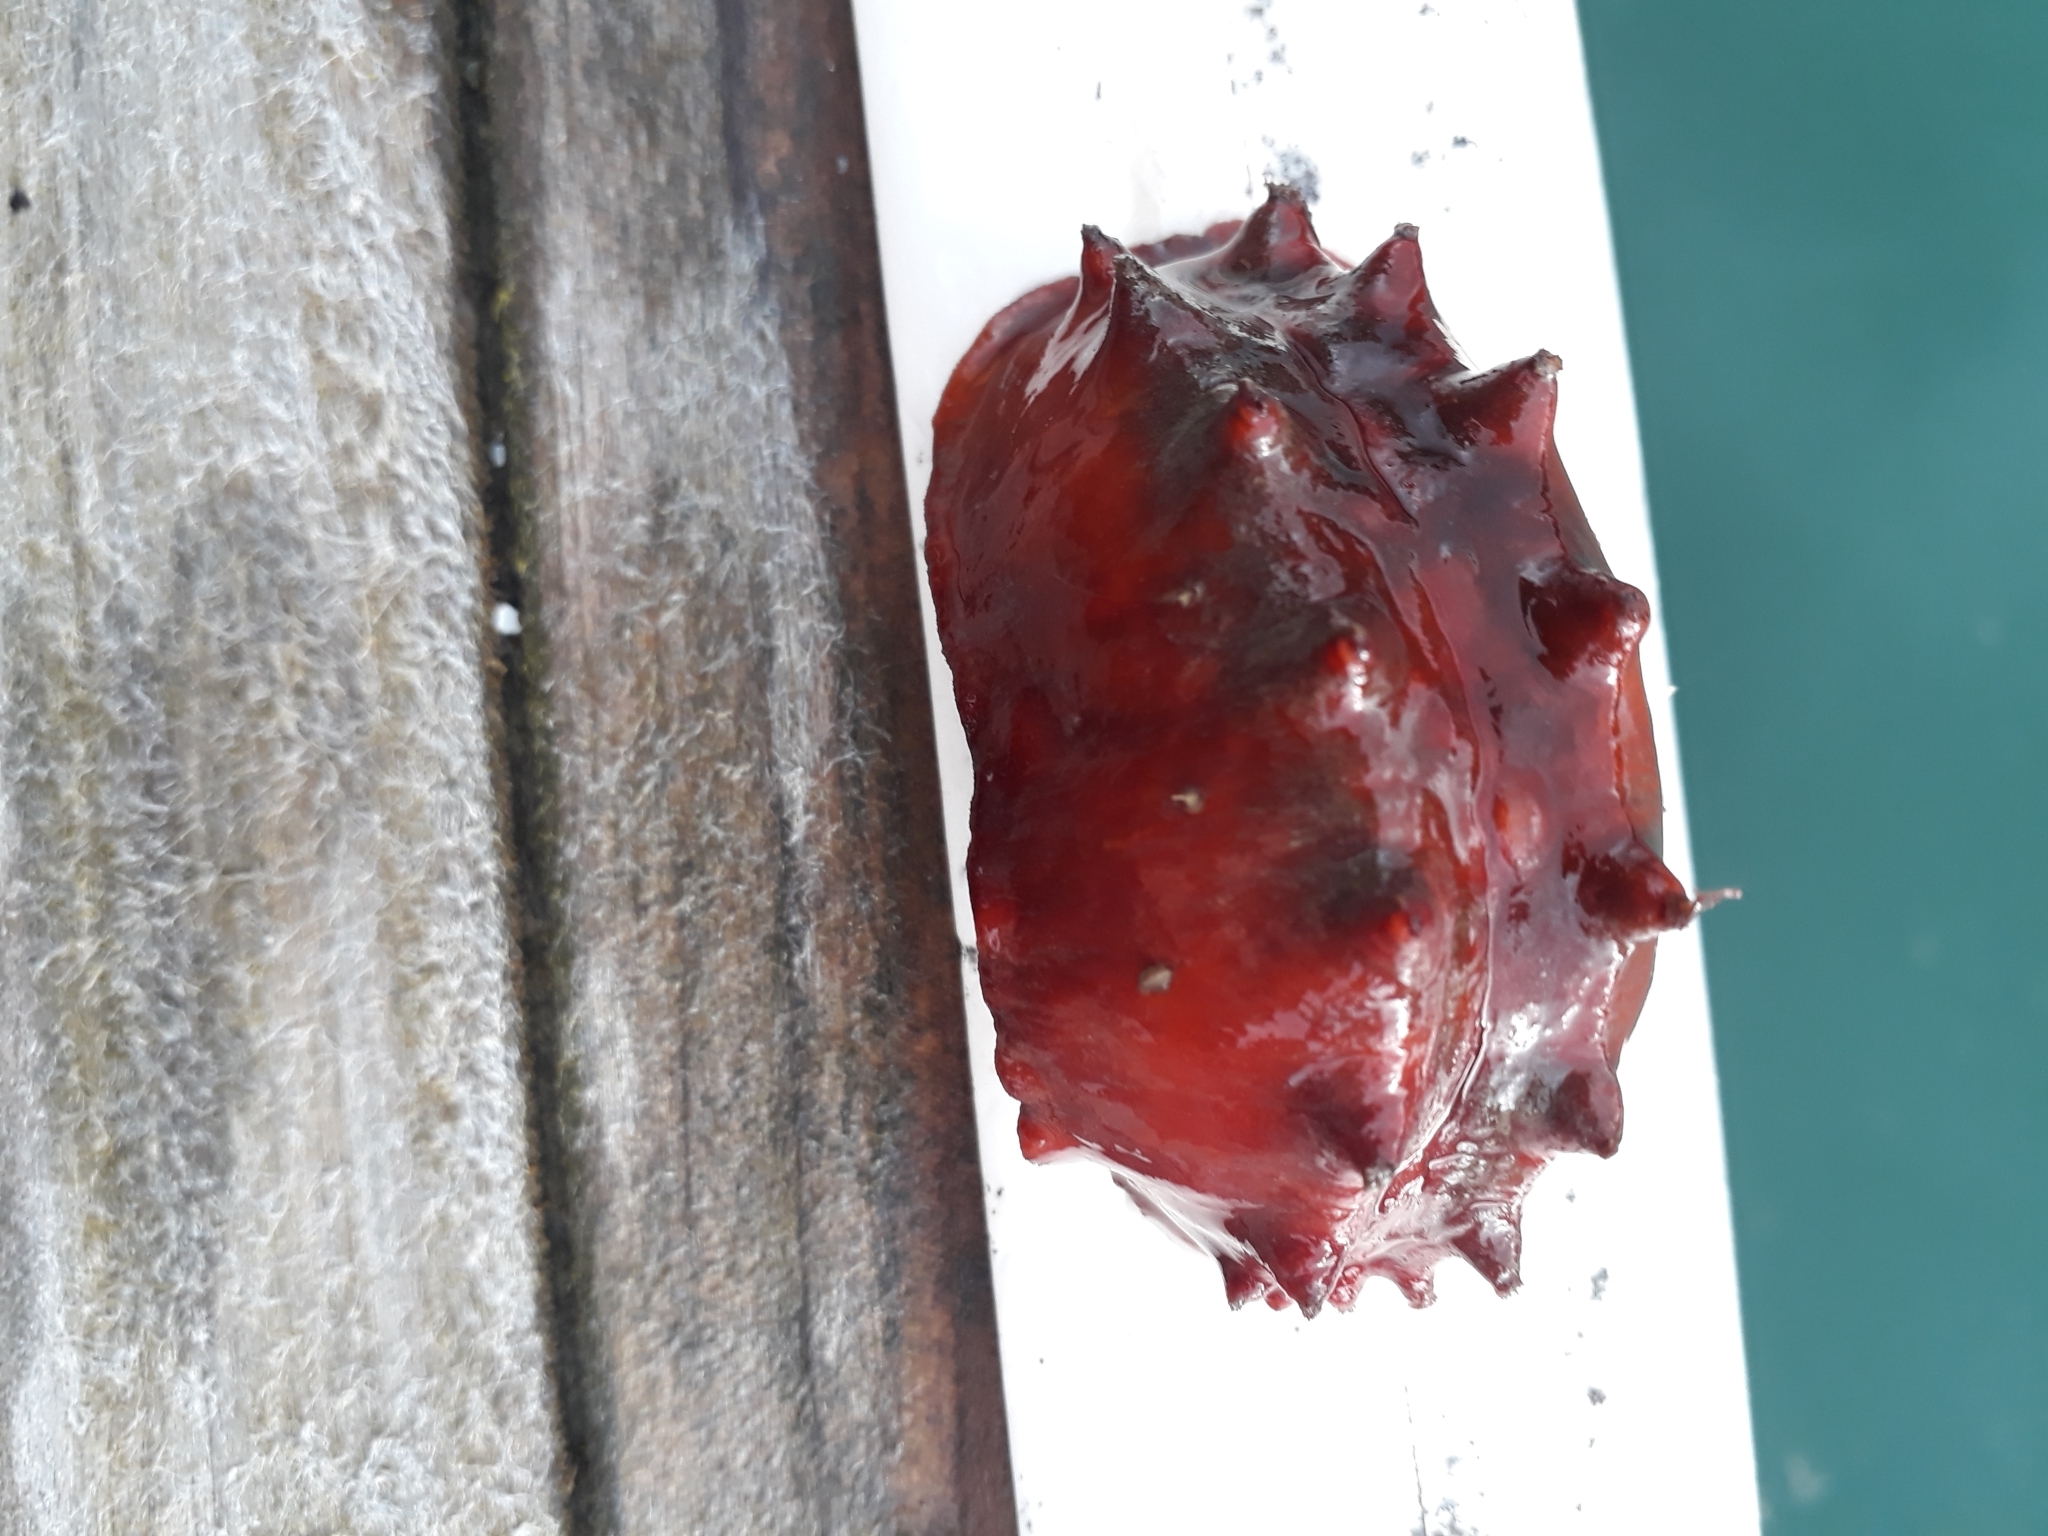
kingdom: Animalia
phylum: Mollusca
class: Polyplacophora
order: Chitonida
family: Acanthochitonidae
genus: Cryptoconchus
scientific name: Cryptoconchus porosus
